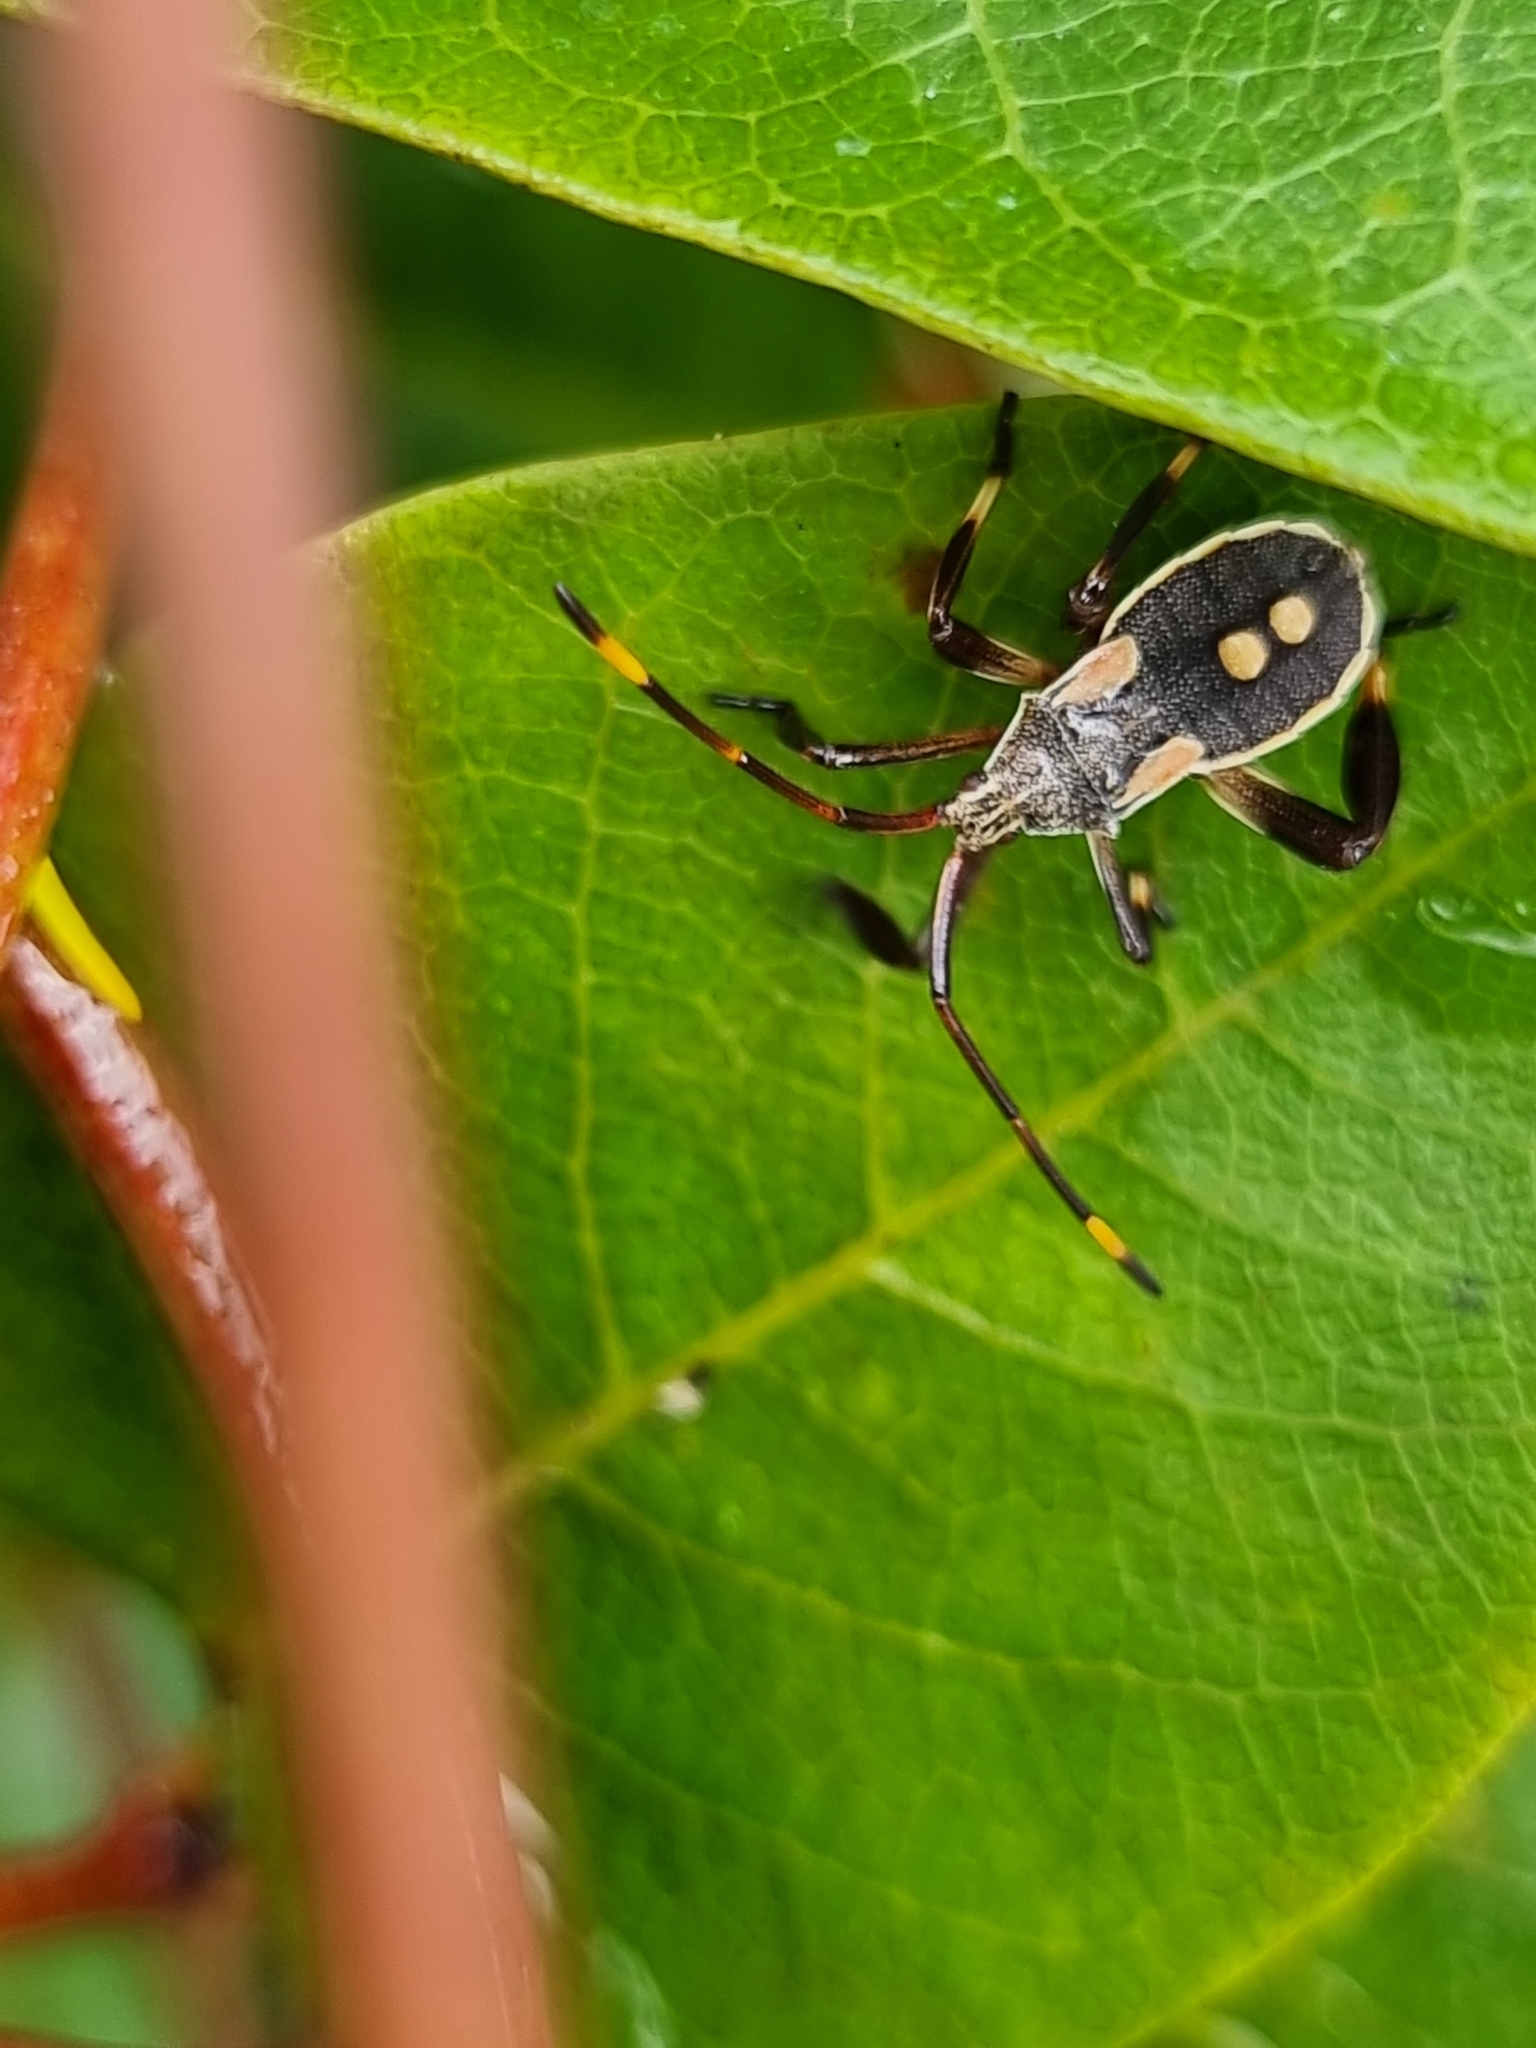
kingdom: Animalia
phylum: Arthropoda
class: Insecta
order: Hemiptera
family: Coreidae
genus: Mictis
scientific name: Mictis profana
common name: Crusader bug
